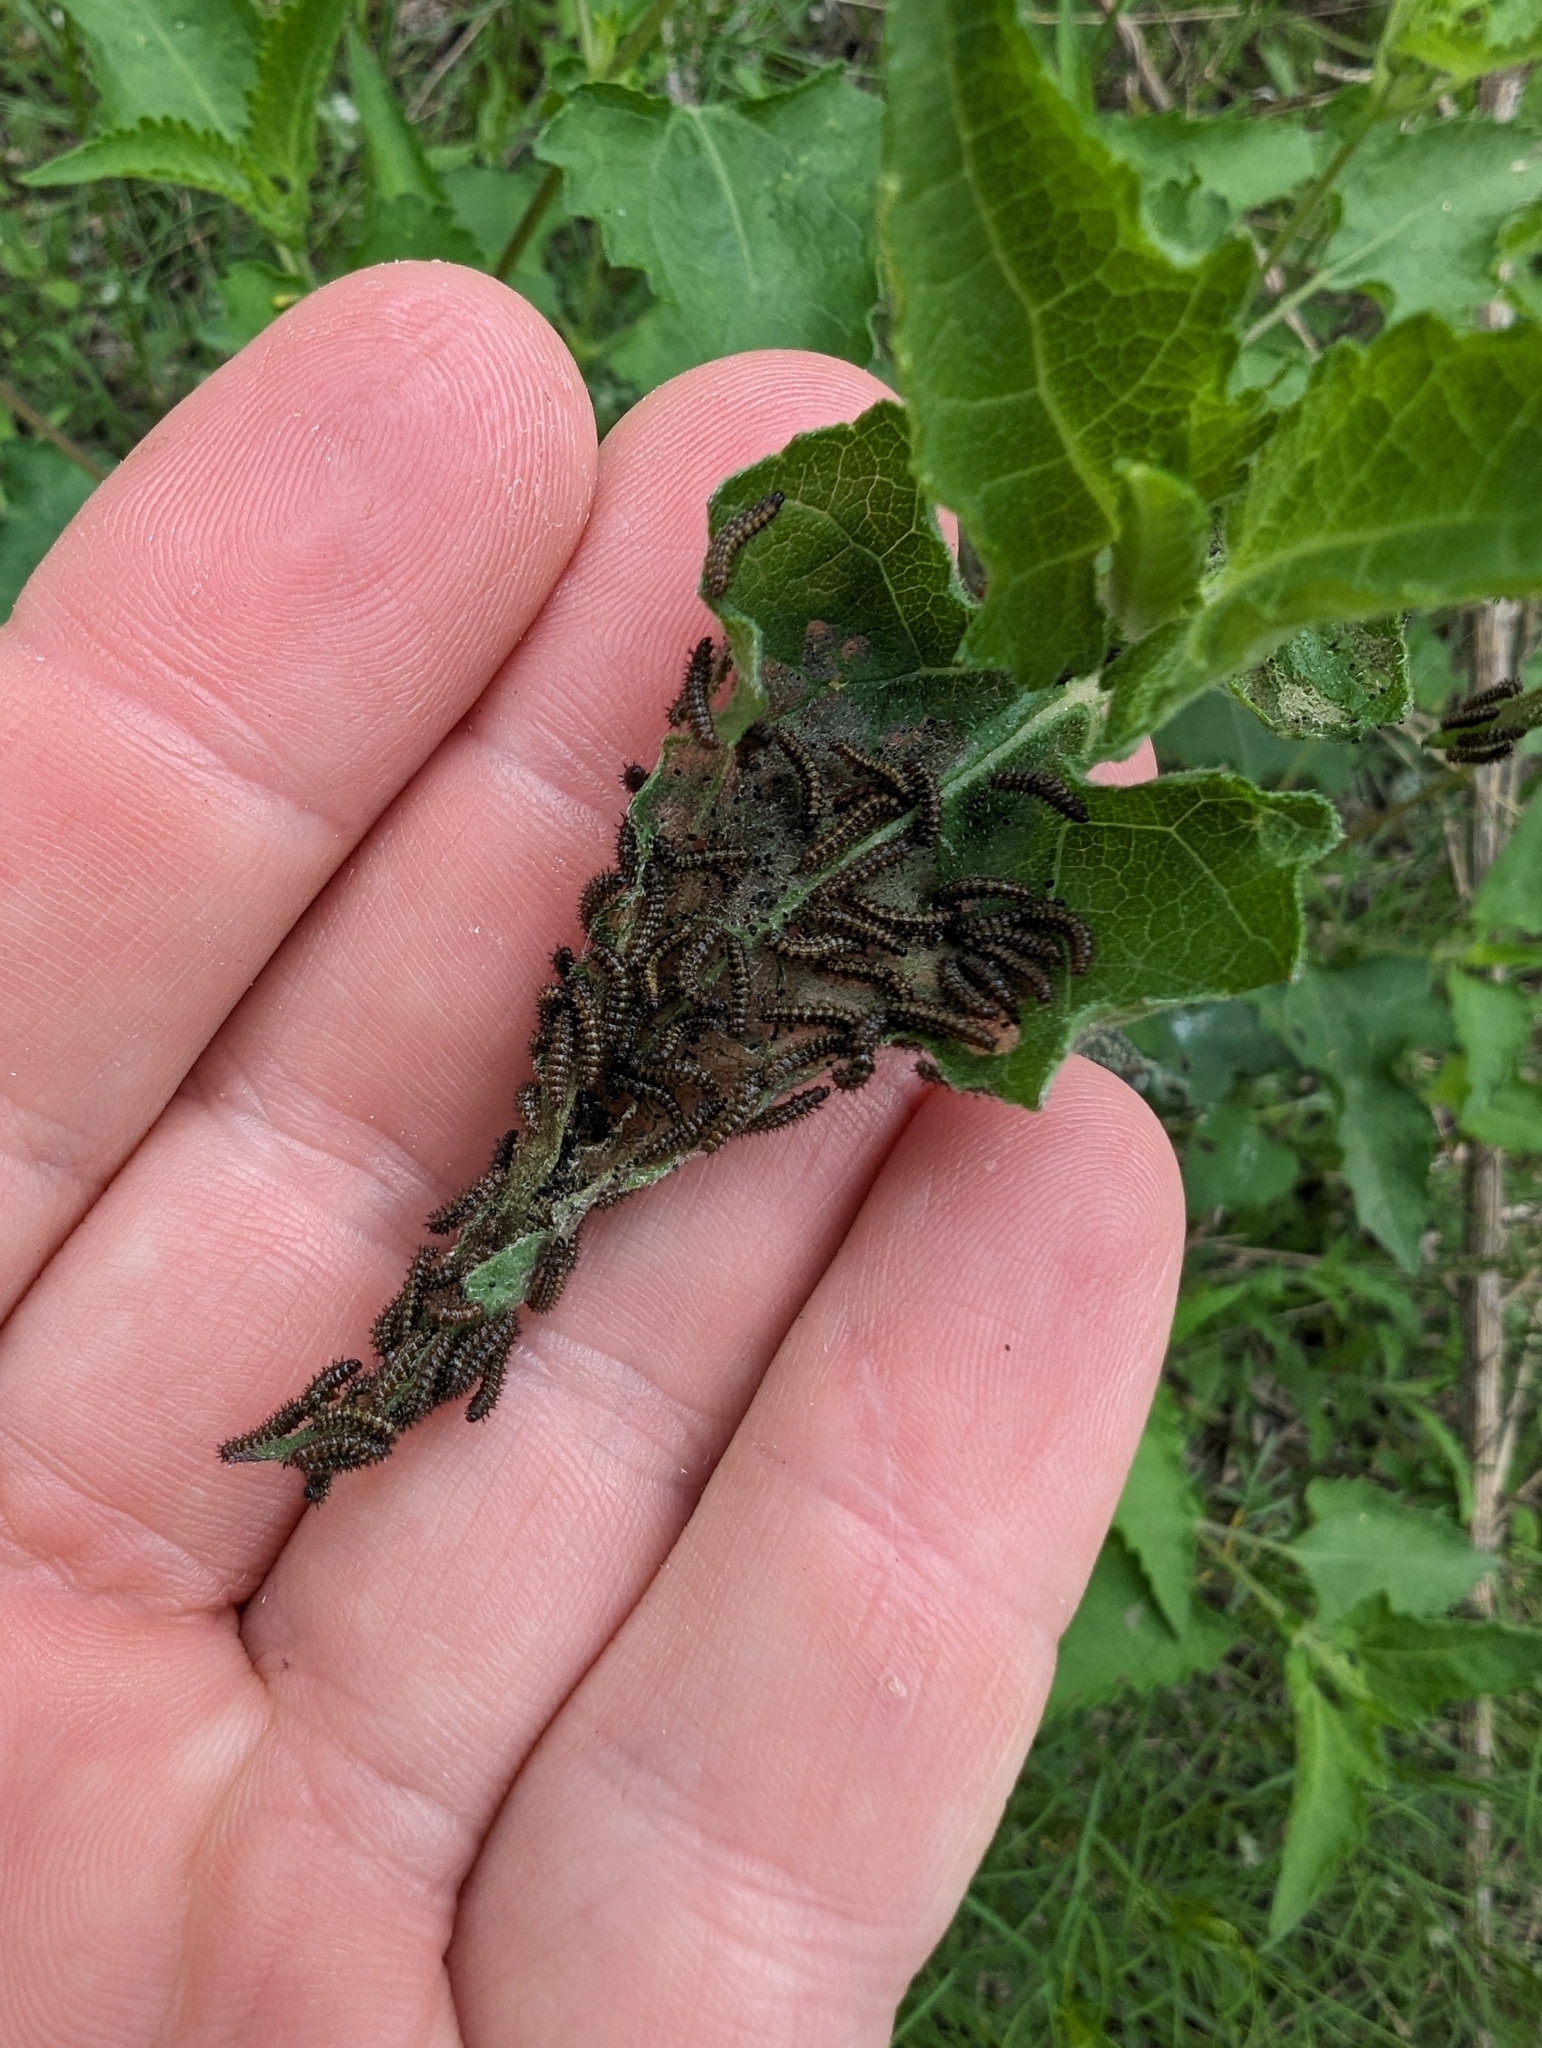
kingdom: Animalia
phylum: Arthropoda
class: Insecta
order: Lepidoptera
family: Nymphalidae
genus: Chlosyne
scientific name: Chlosyne lacinia
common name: Bordered patch
